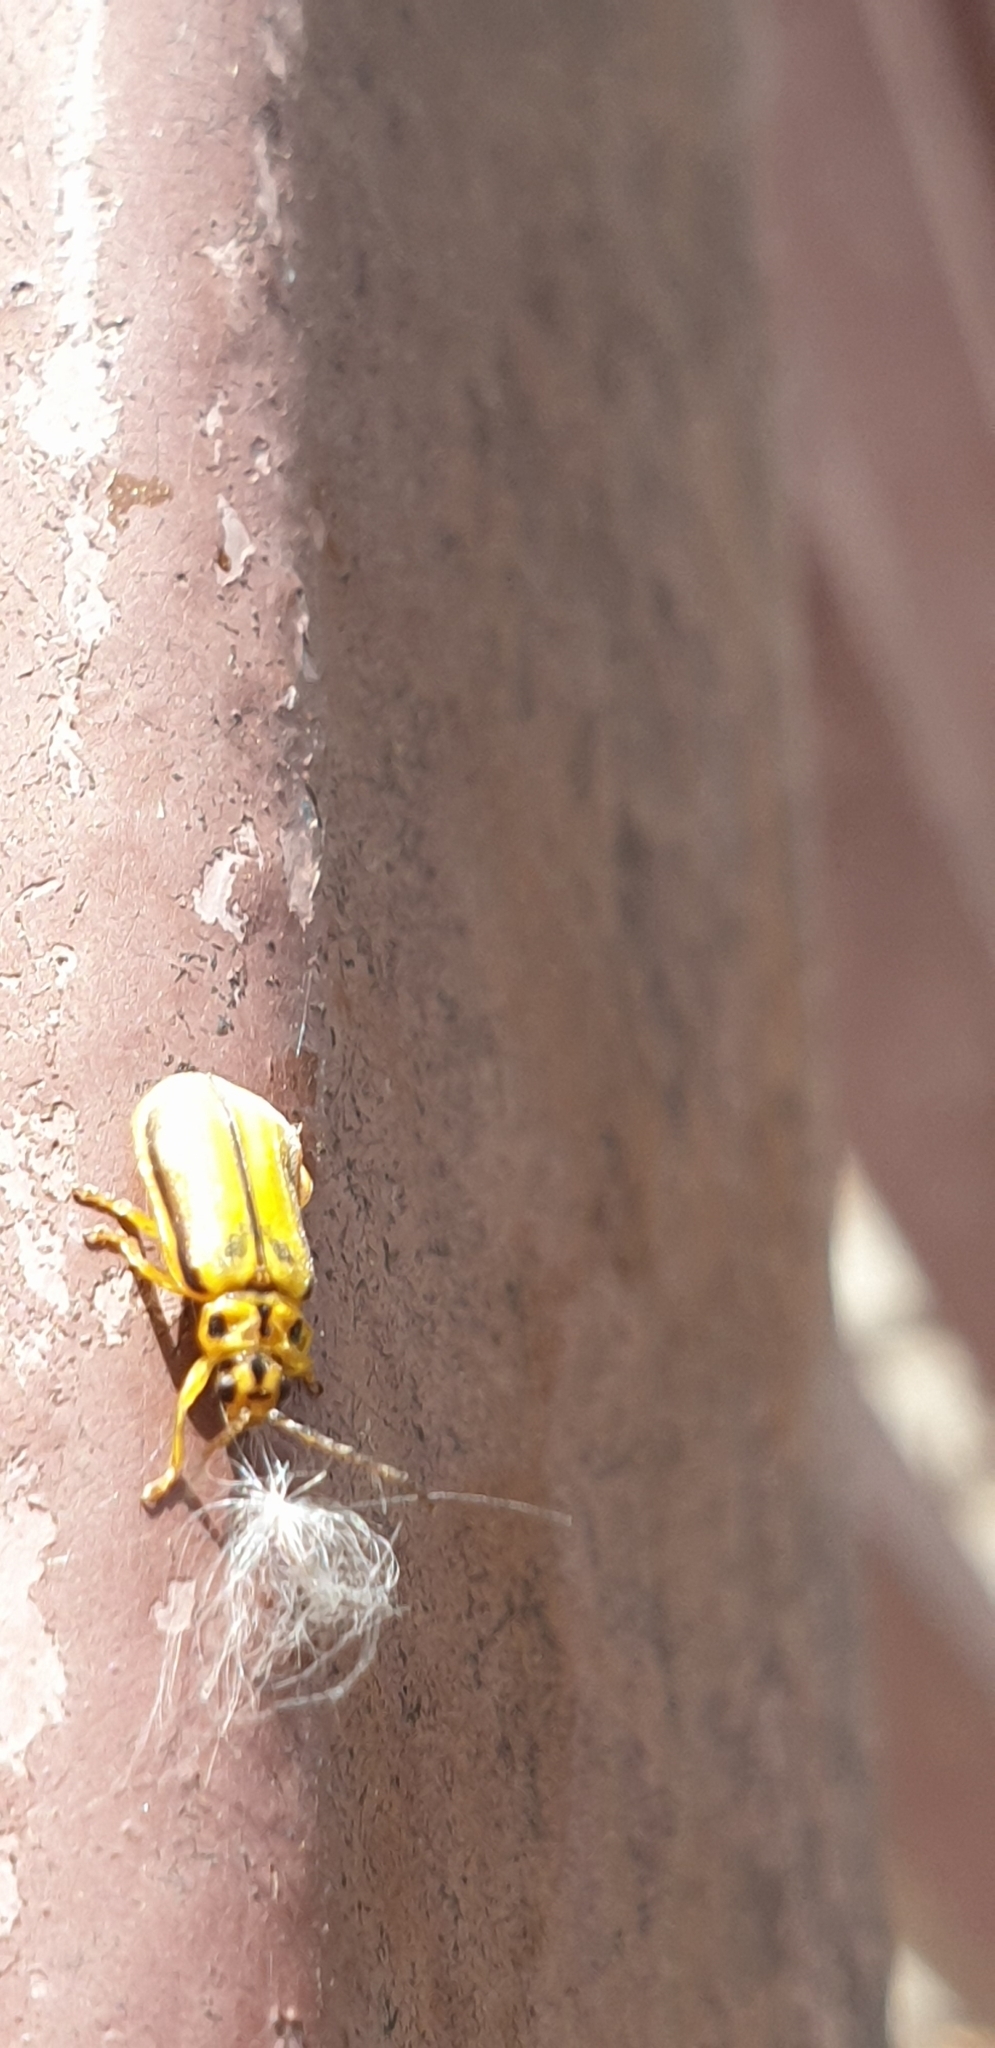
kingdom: Animalia
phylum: Arthropoda
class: Insecta
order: Coleoptera
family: Chrysomelidae
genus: Xanthogaleruca
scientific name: Xanthogaleruca luteola
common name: Elm leaf beetle
